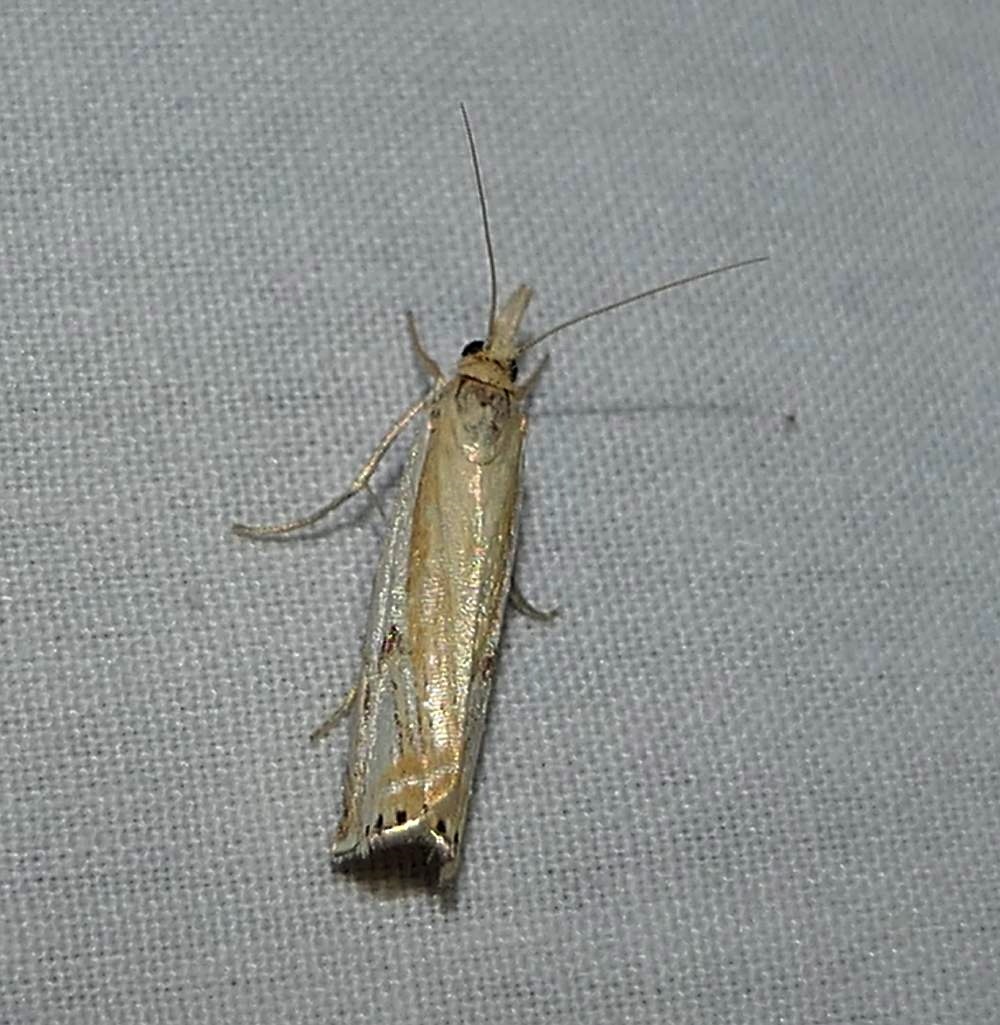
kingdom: Animalia
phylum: Arthropoda
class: Insecta
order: Lepidoptera
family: Crambidae
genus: Crambus
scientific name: Crambus agitatellus
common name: Double-banded grass-veneer
